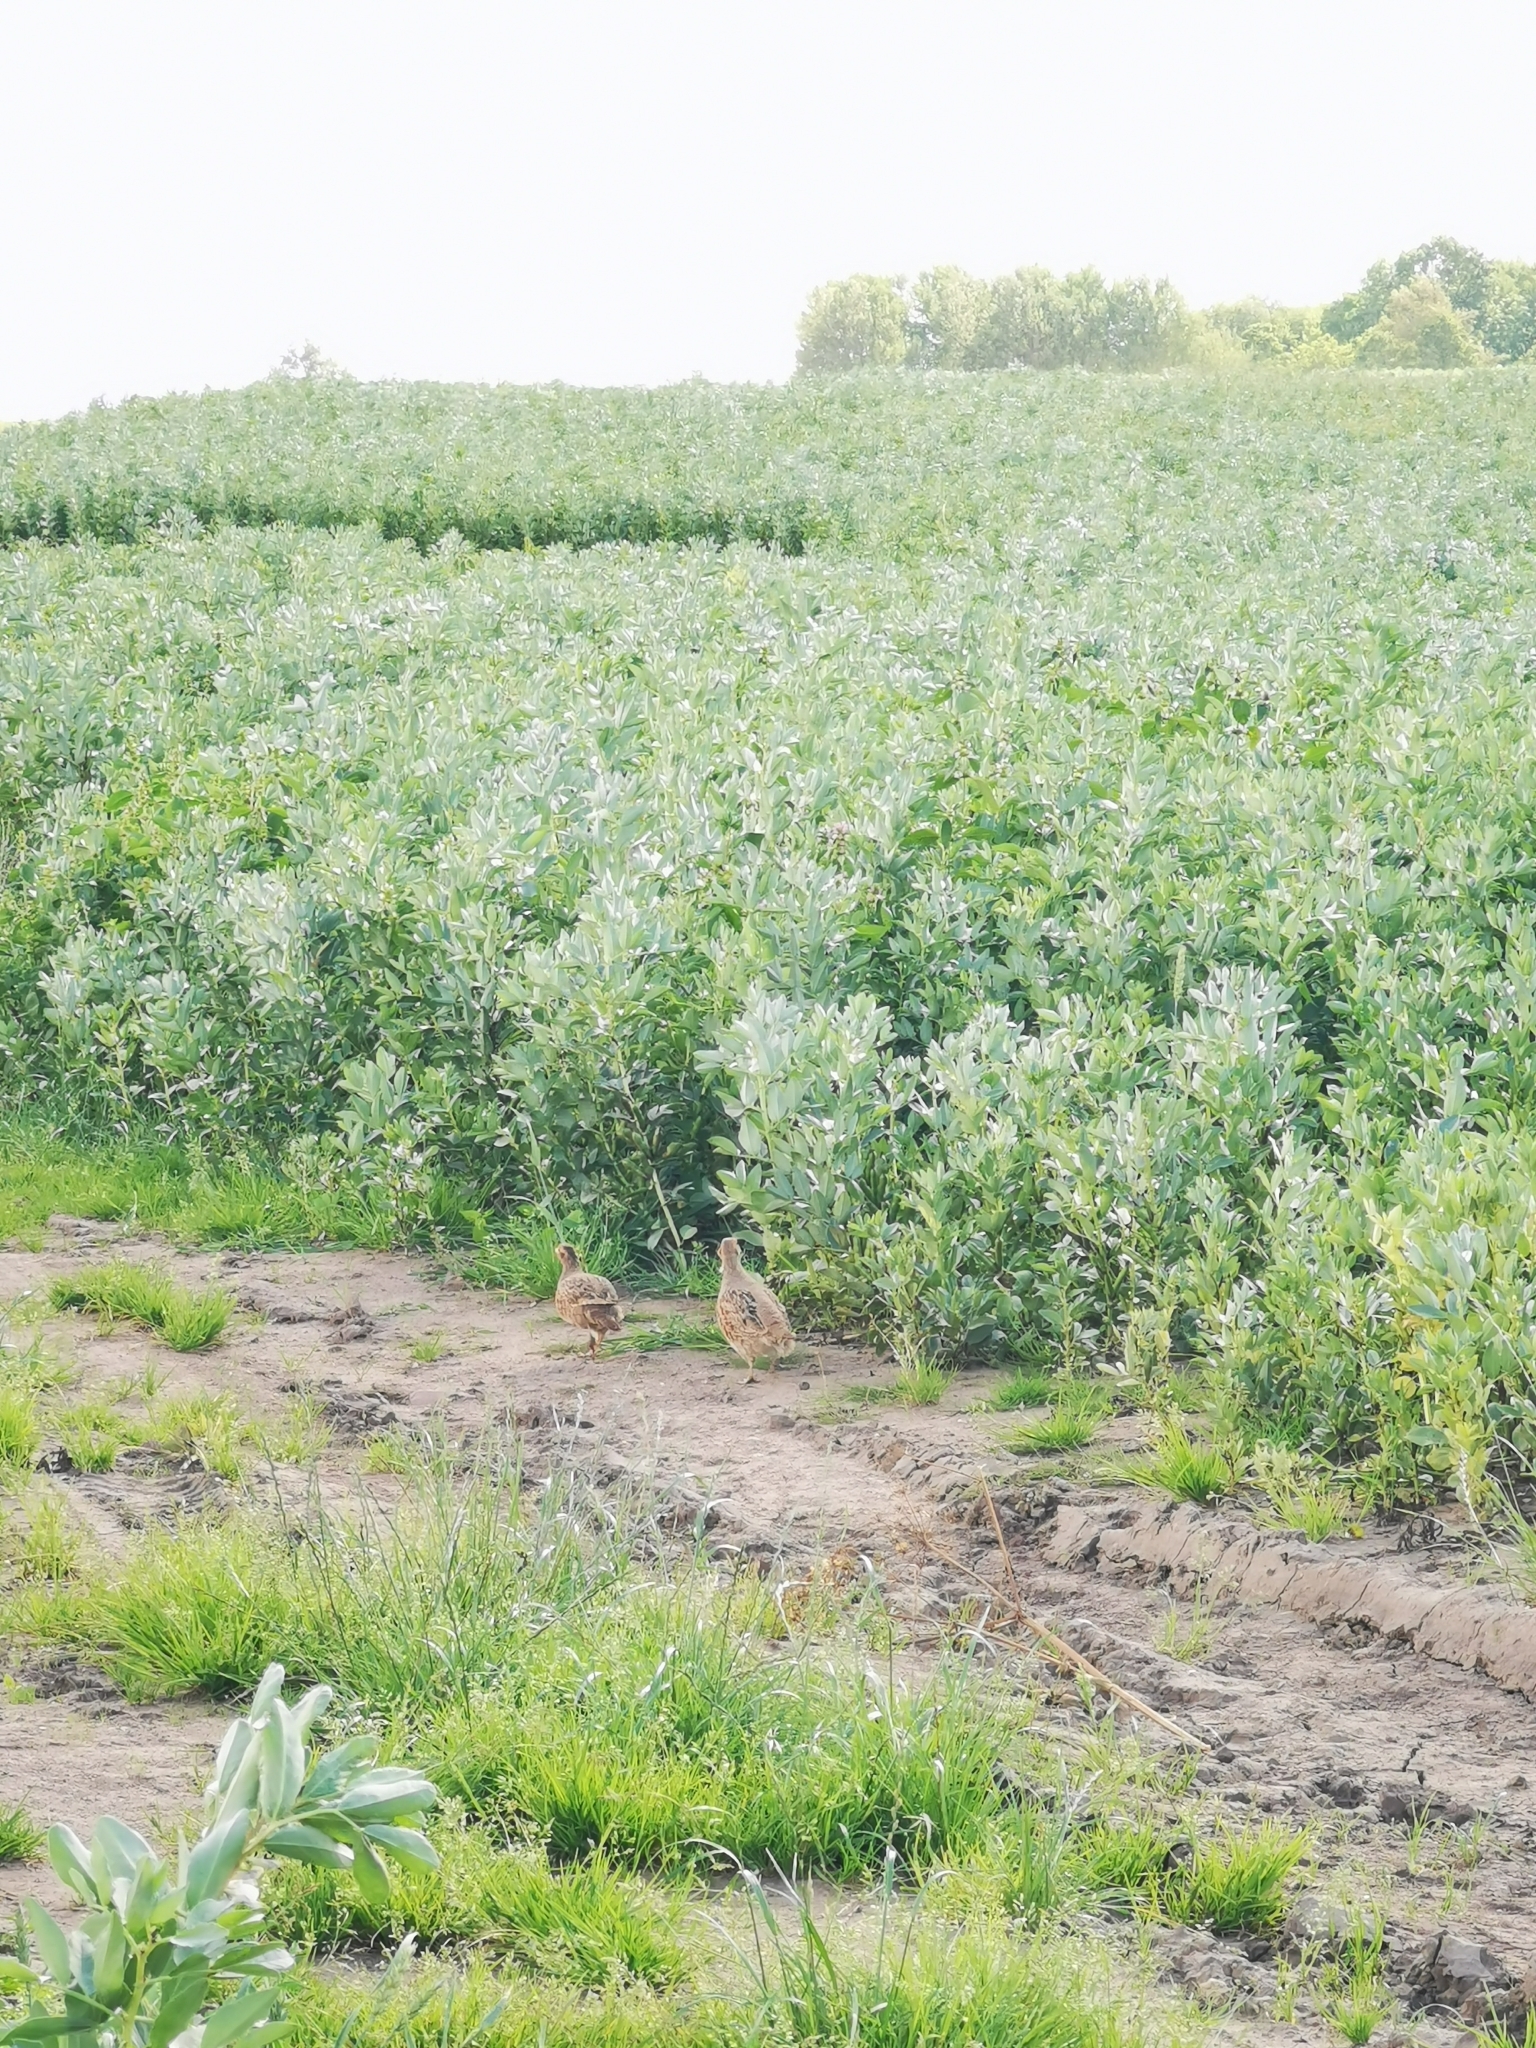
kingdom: Animalia
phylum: Chordata
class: Aves
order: Galliformes
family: Phasianidae
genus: Perdix
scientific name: Perdix perdix
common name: Grey partridge
